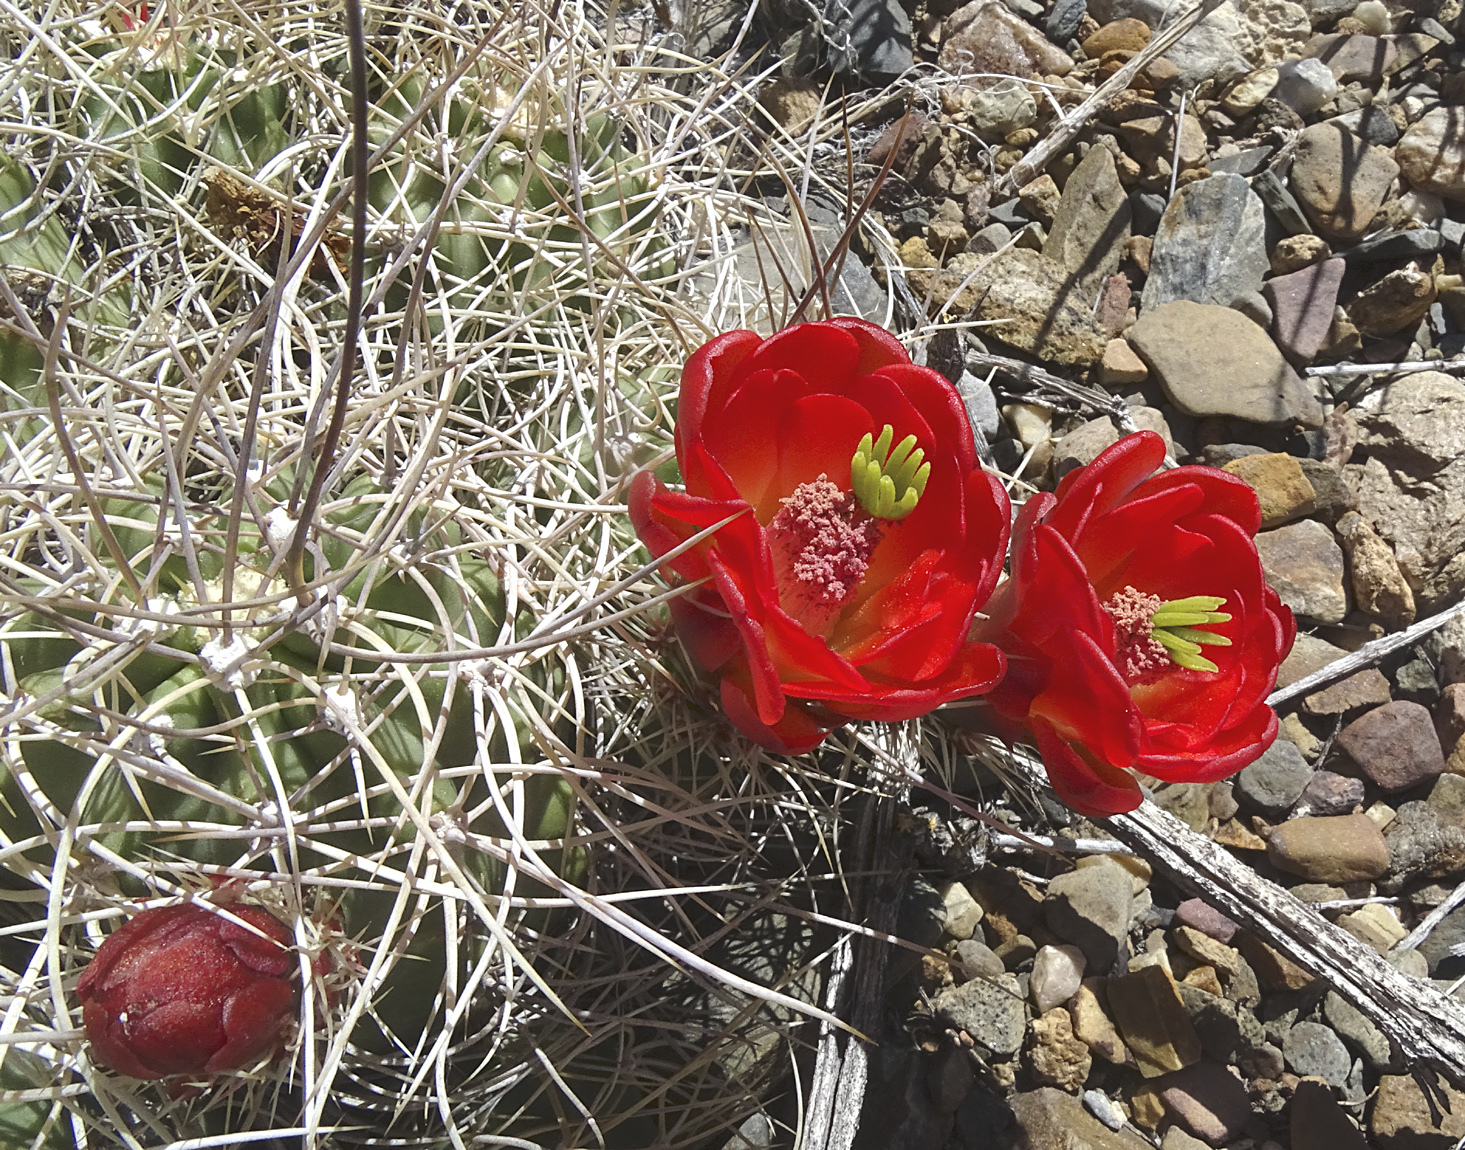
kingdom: Plantae
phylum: Tracheophyta
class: Magnoliopsida
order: Caryophyllales
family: Cactaceae
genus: Echinocereus
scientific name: Echinocereus triglochidiatus
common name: Claretcup hedgehog
